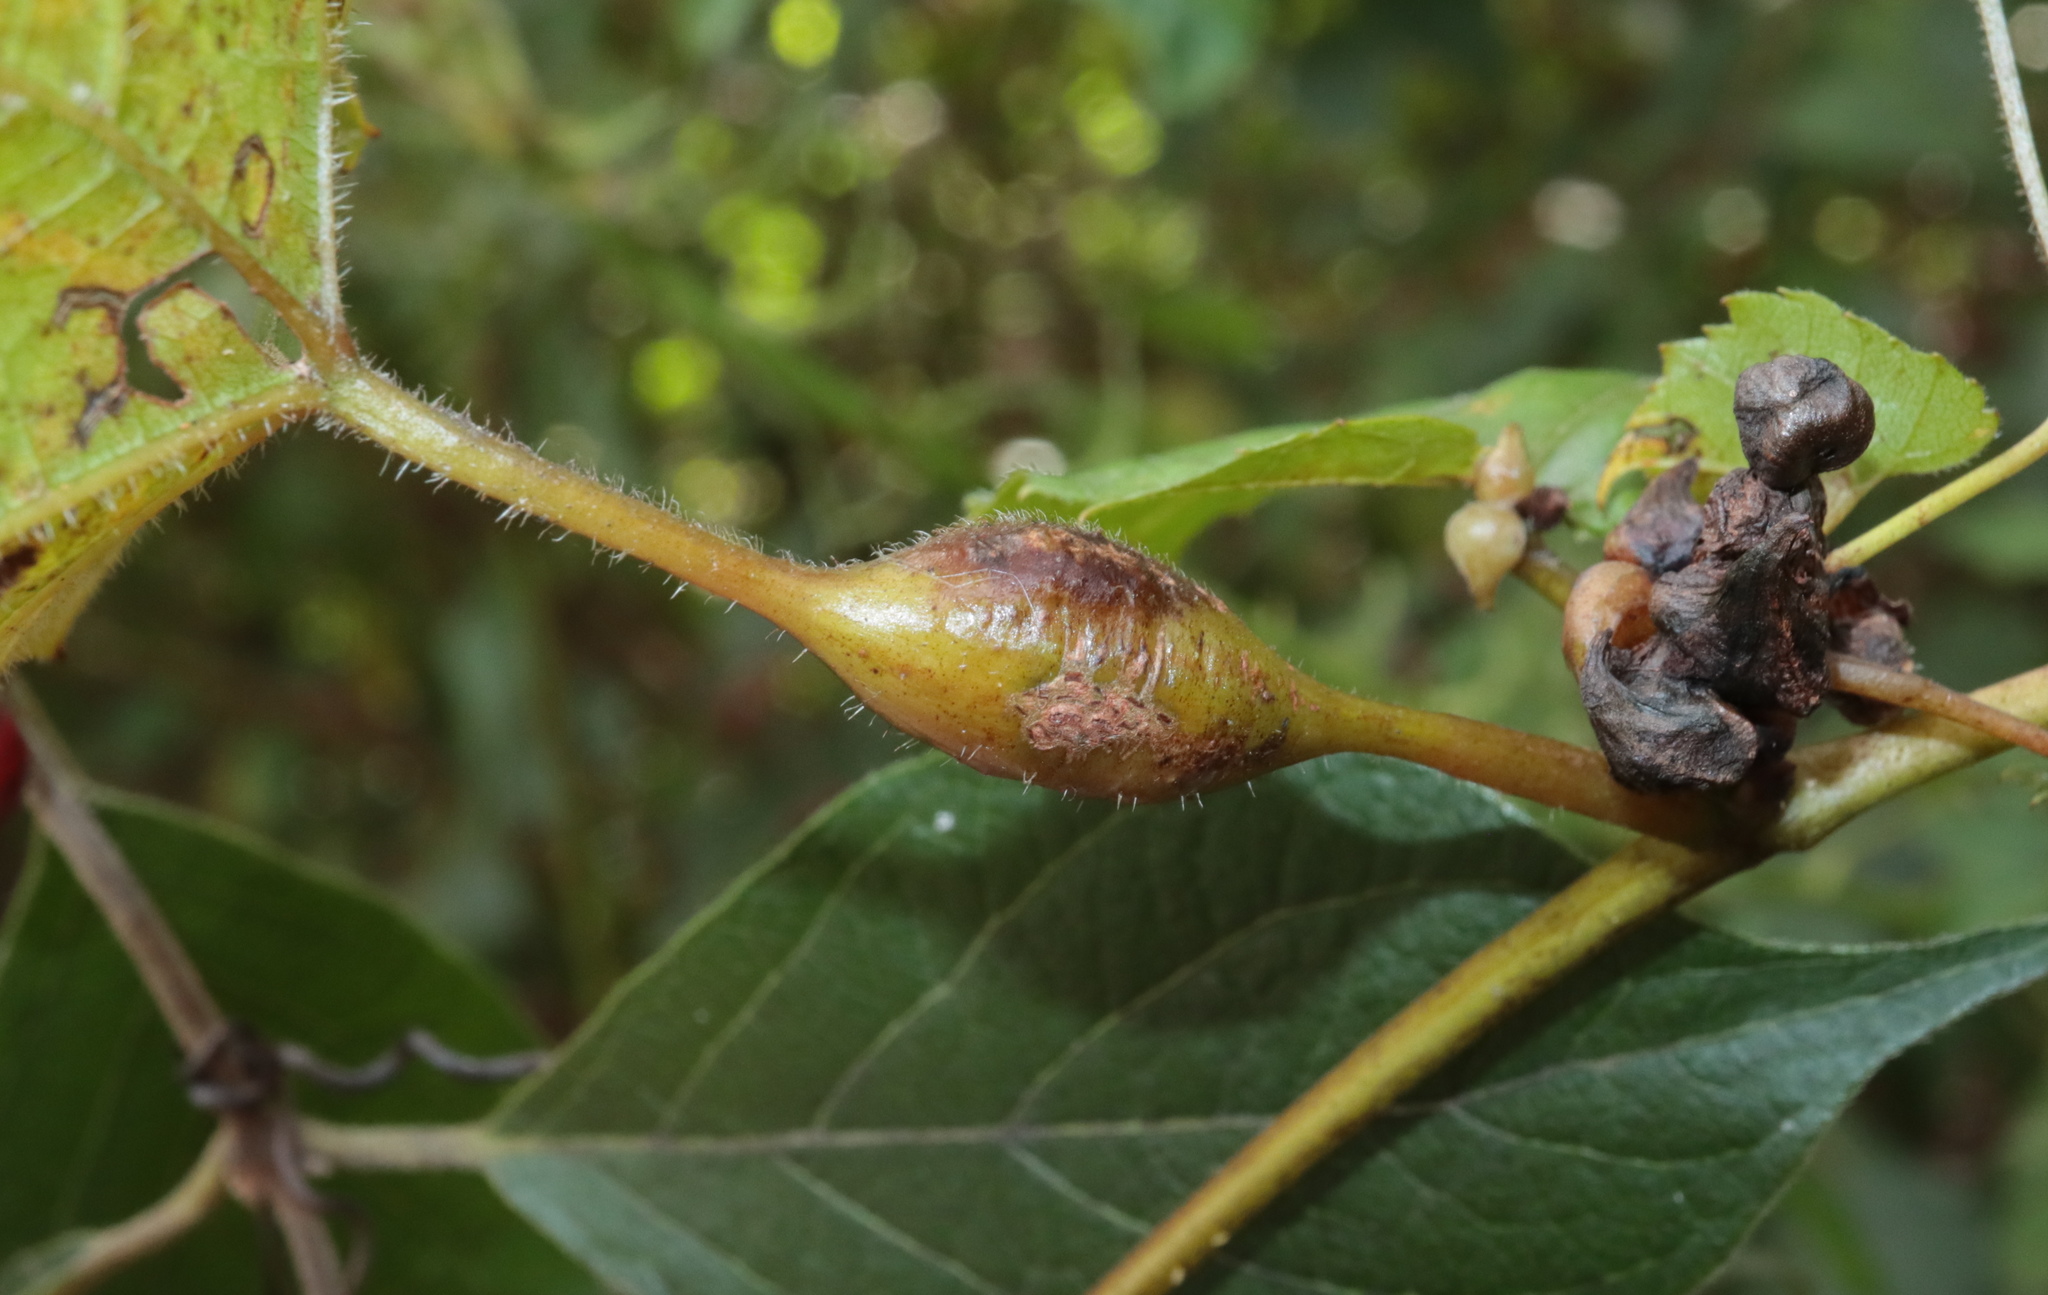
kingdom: Animalia
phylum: Arthropoda
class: Insecta
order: Diptera
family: Cecidomyiidae
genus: Neolasioptera
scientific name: Neolasioptera vitinea
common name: Grape leaf petiole gall
